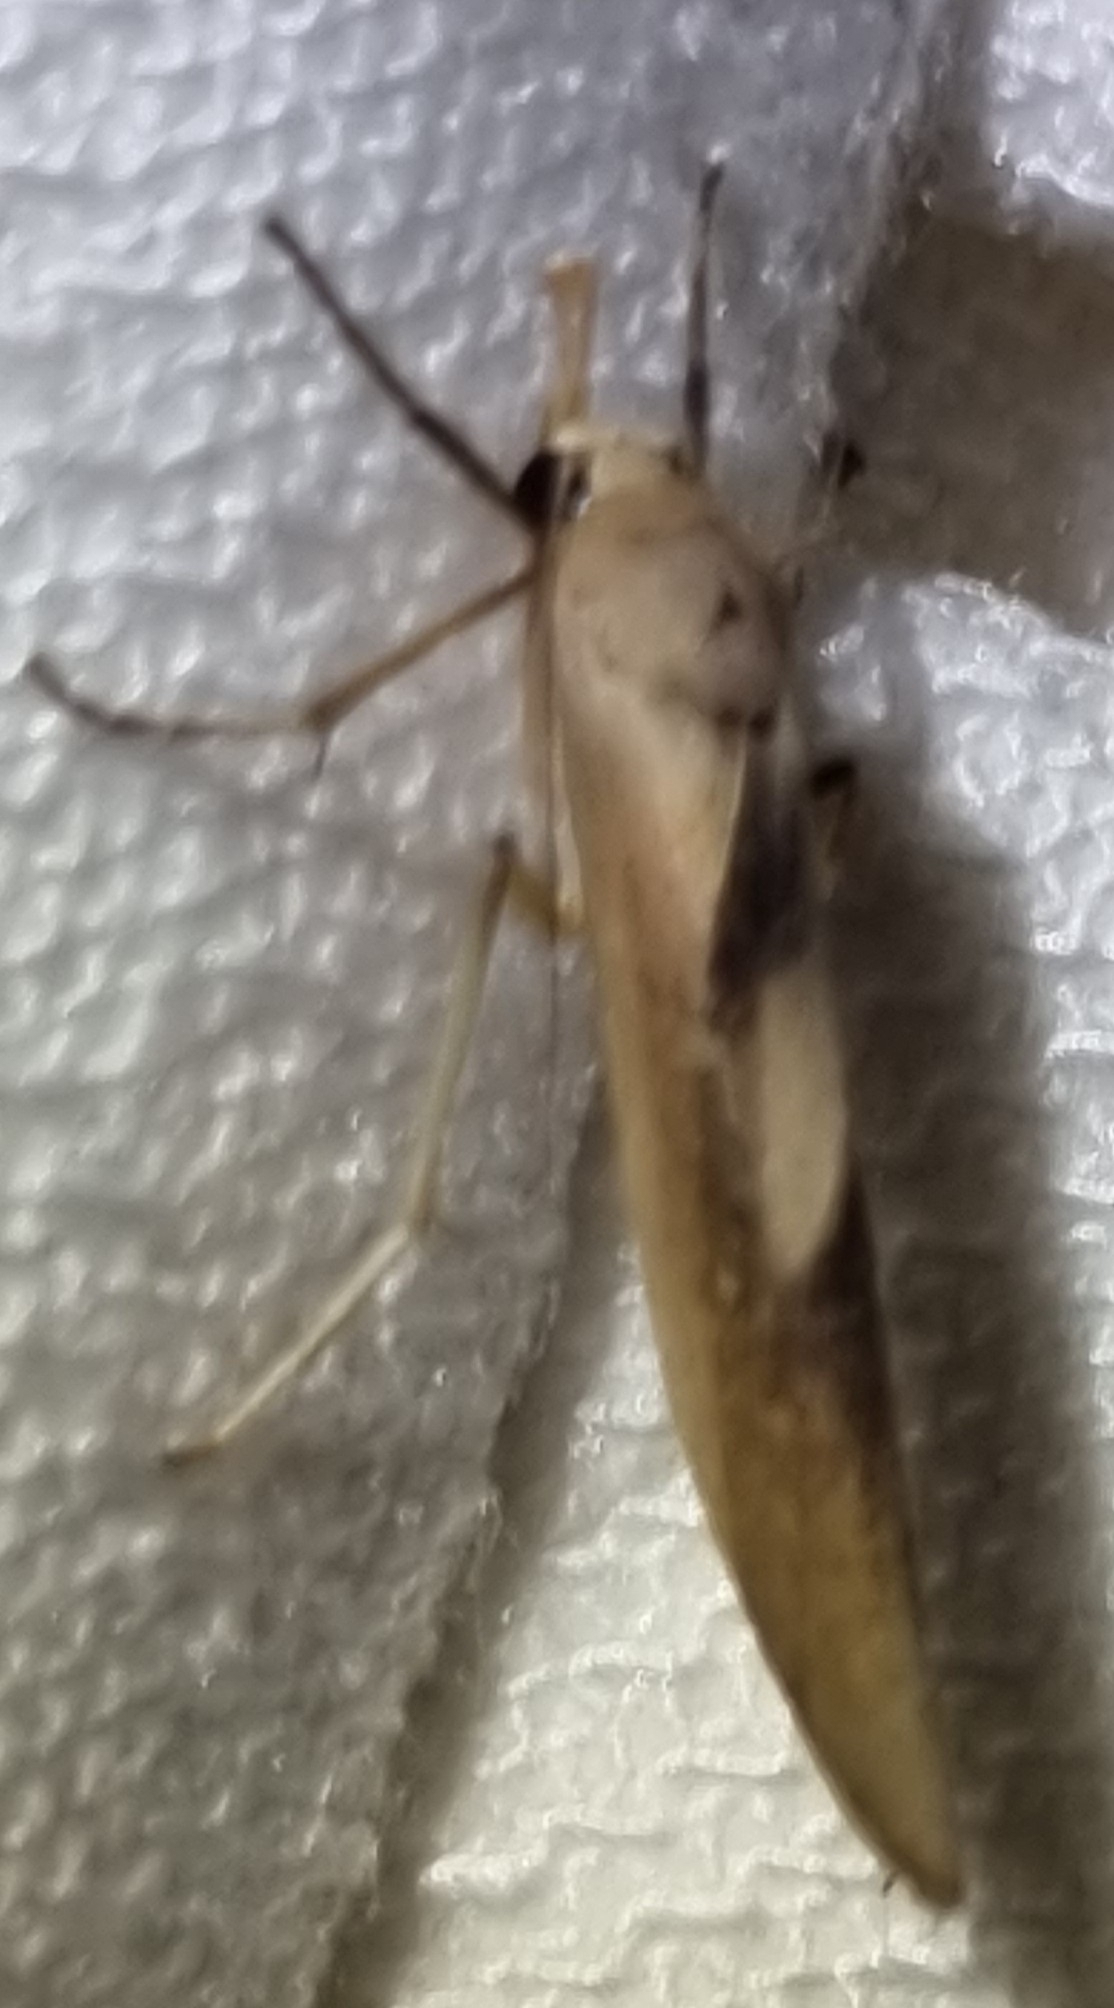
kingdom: Animalia
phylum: Arthropoda
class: Insecta
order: Lepidoptera
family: Erebidae
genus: Calamidia
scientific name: Calamidia hirta
